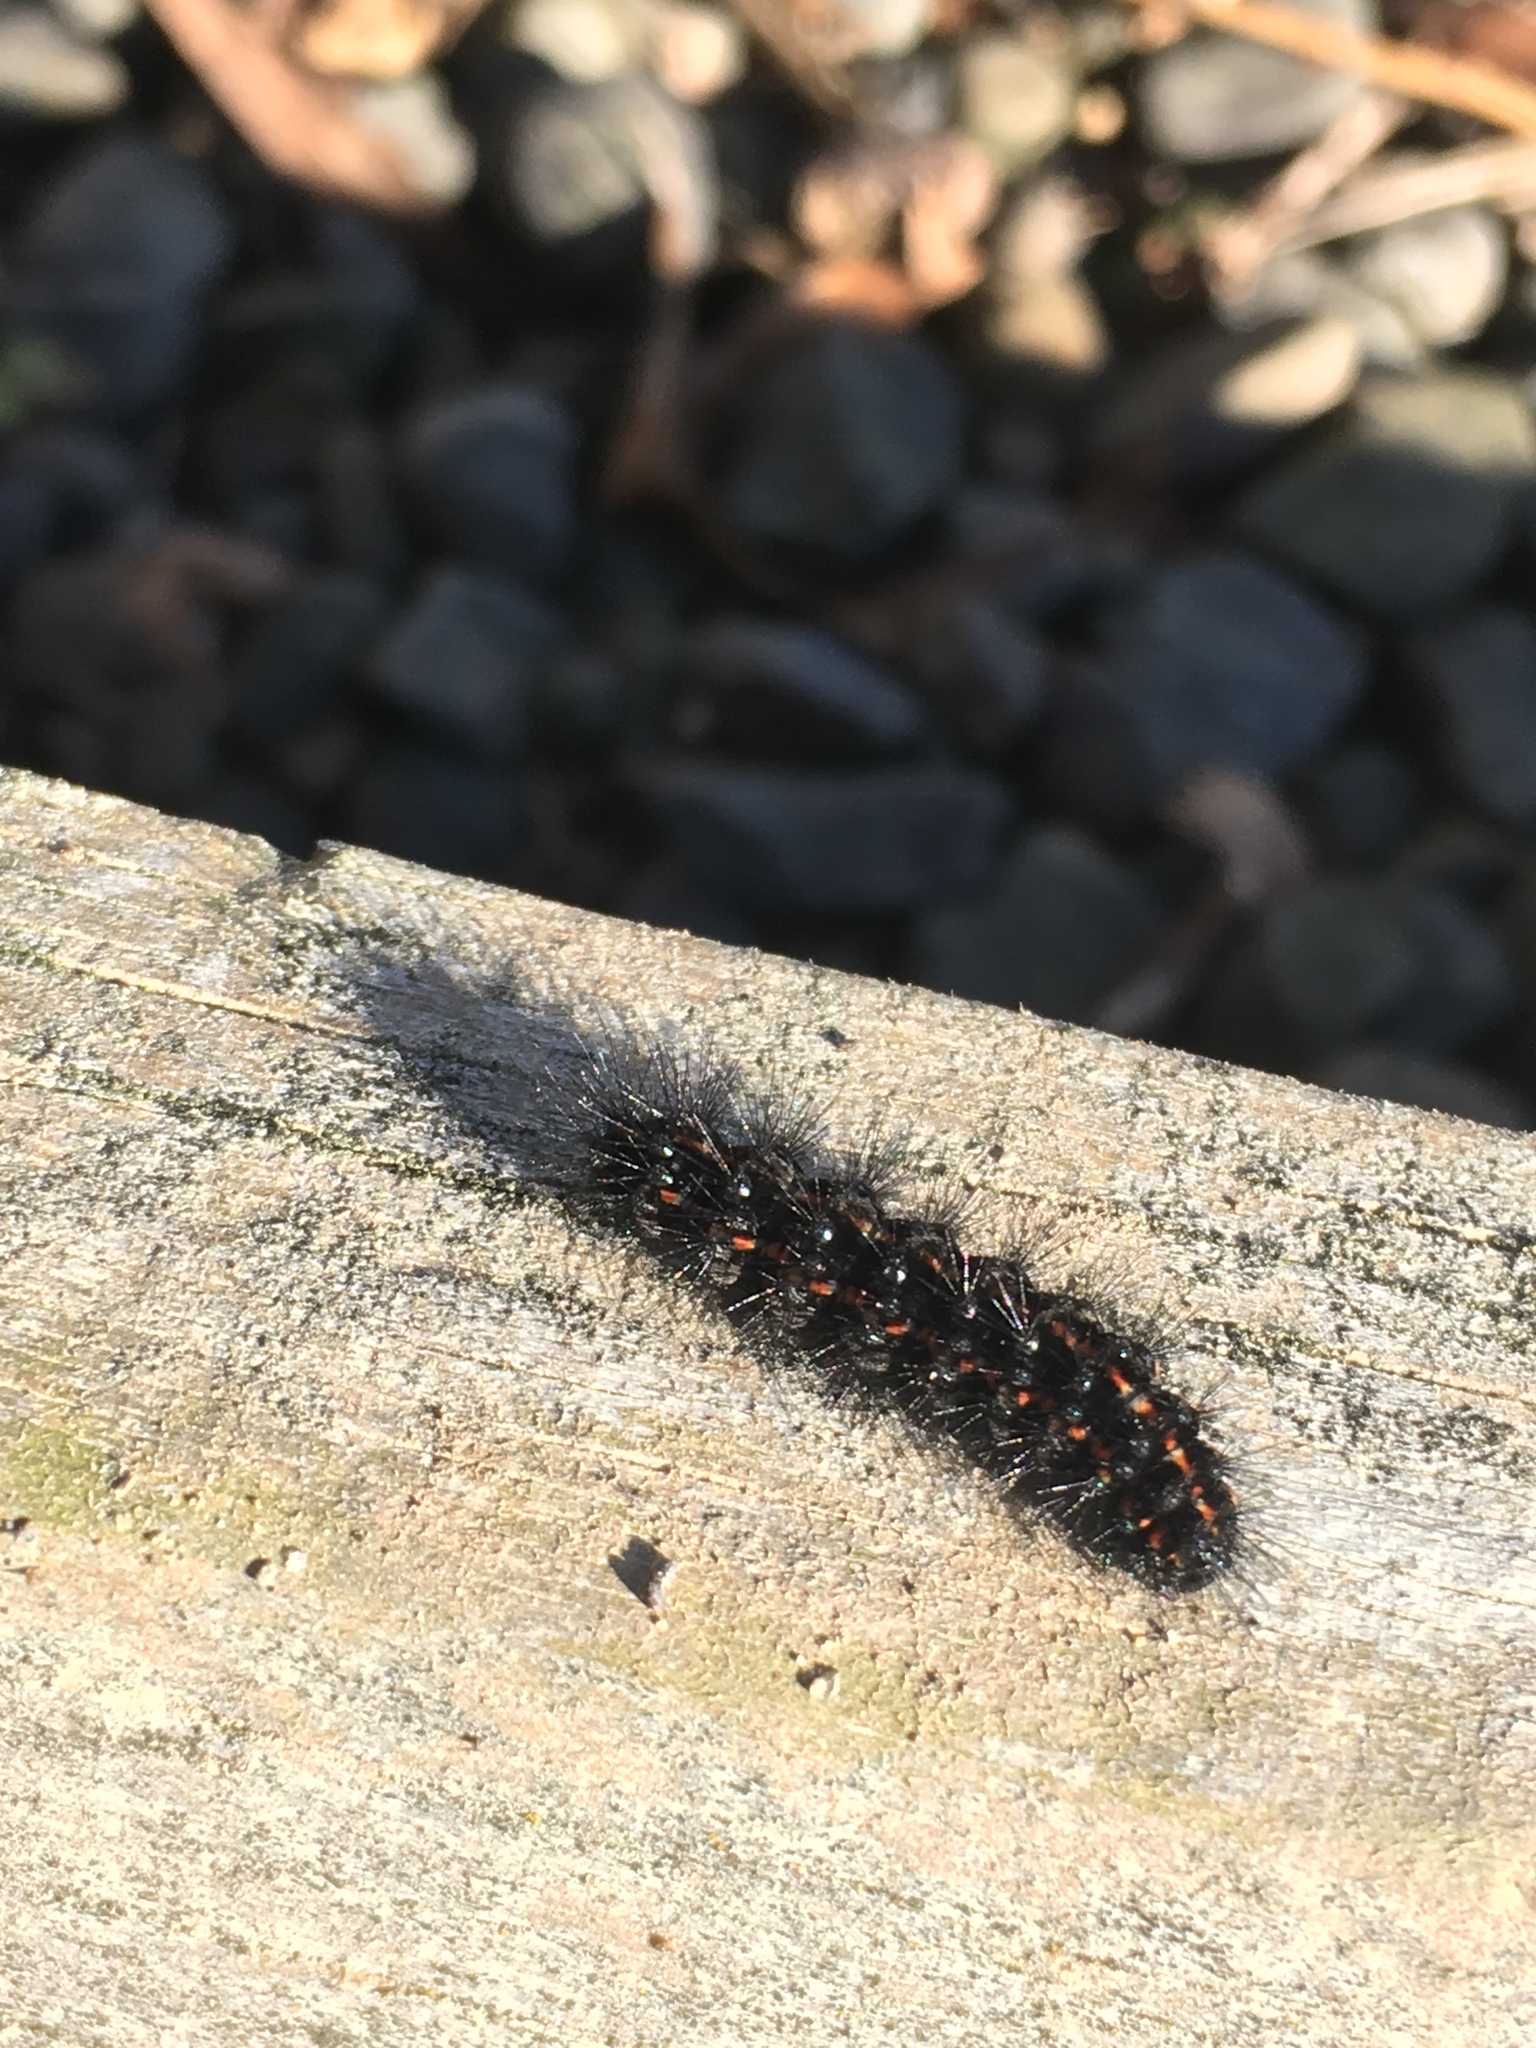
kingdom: Animalia
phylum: Arthropoda
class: Insecta
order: Lepidoptera
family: Erebidae
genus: Nyctemera
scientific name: Nyctemera annulatum
